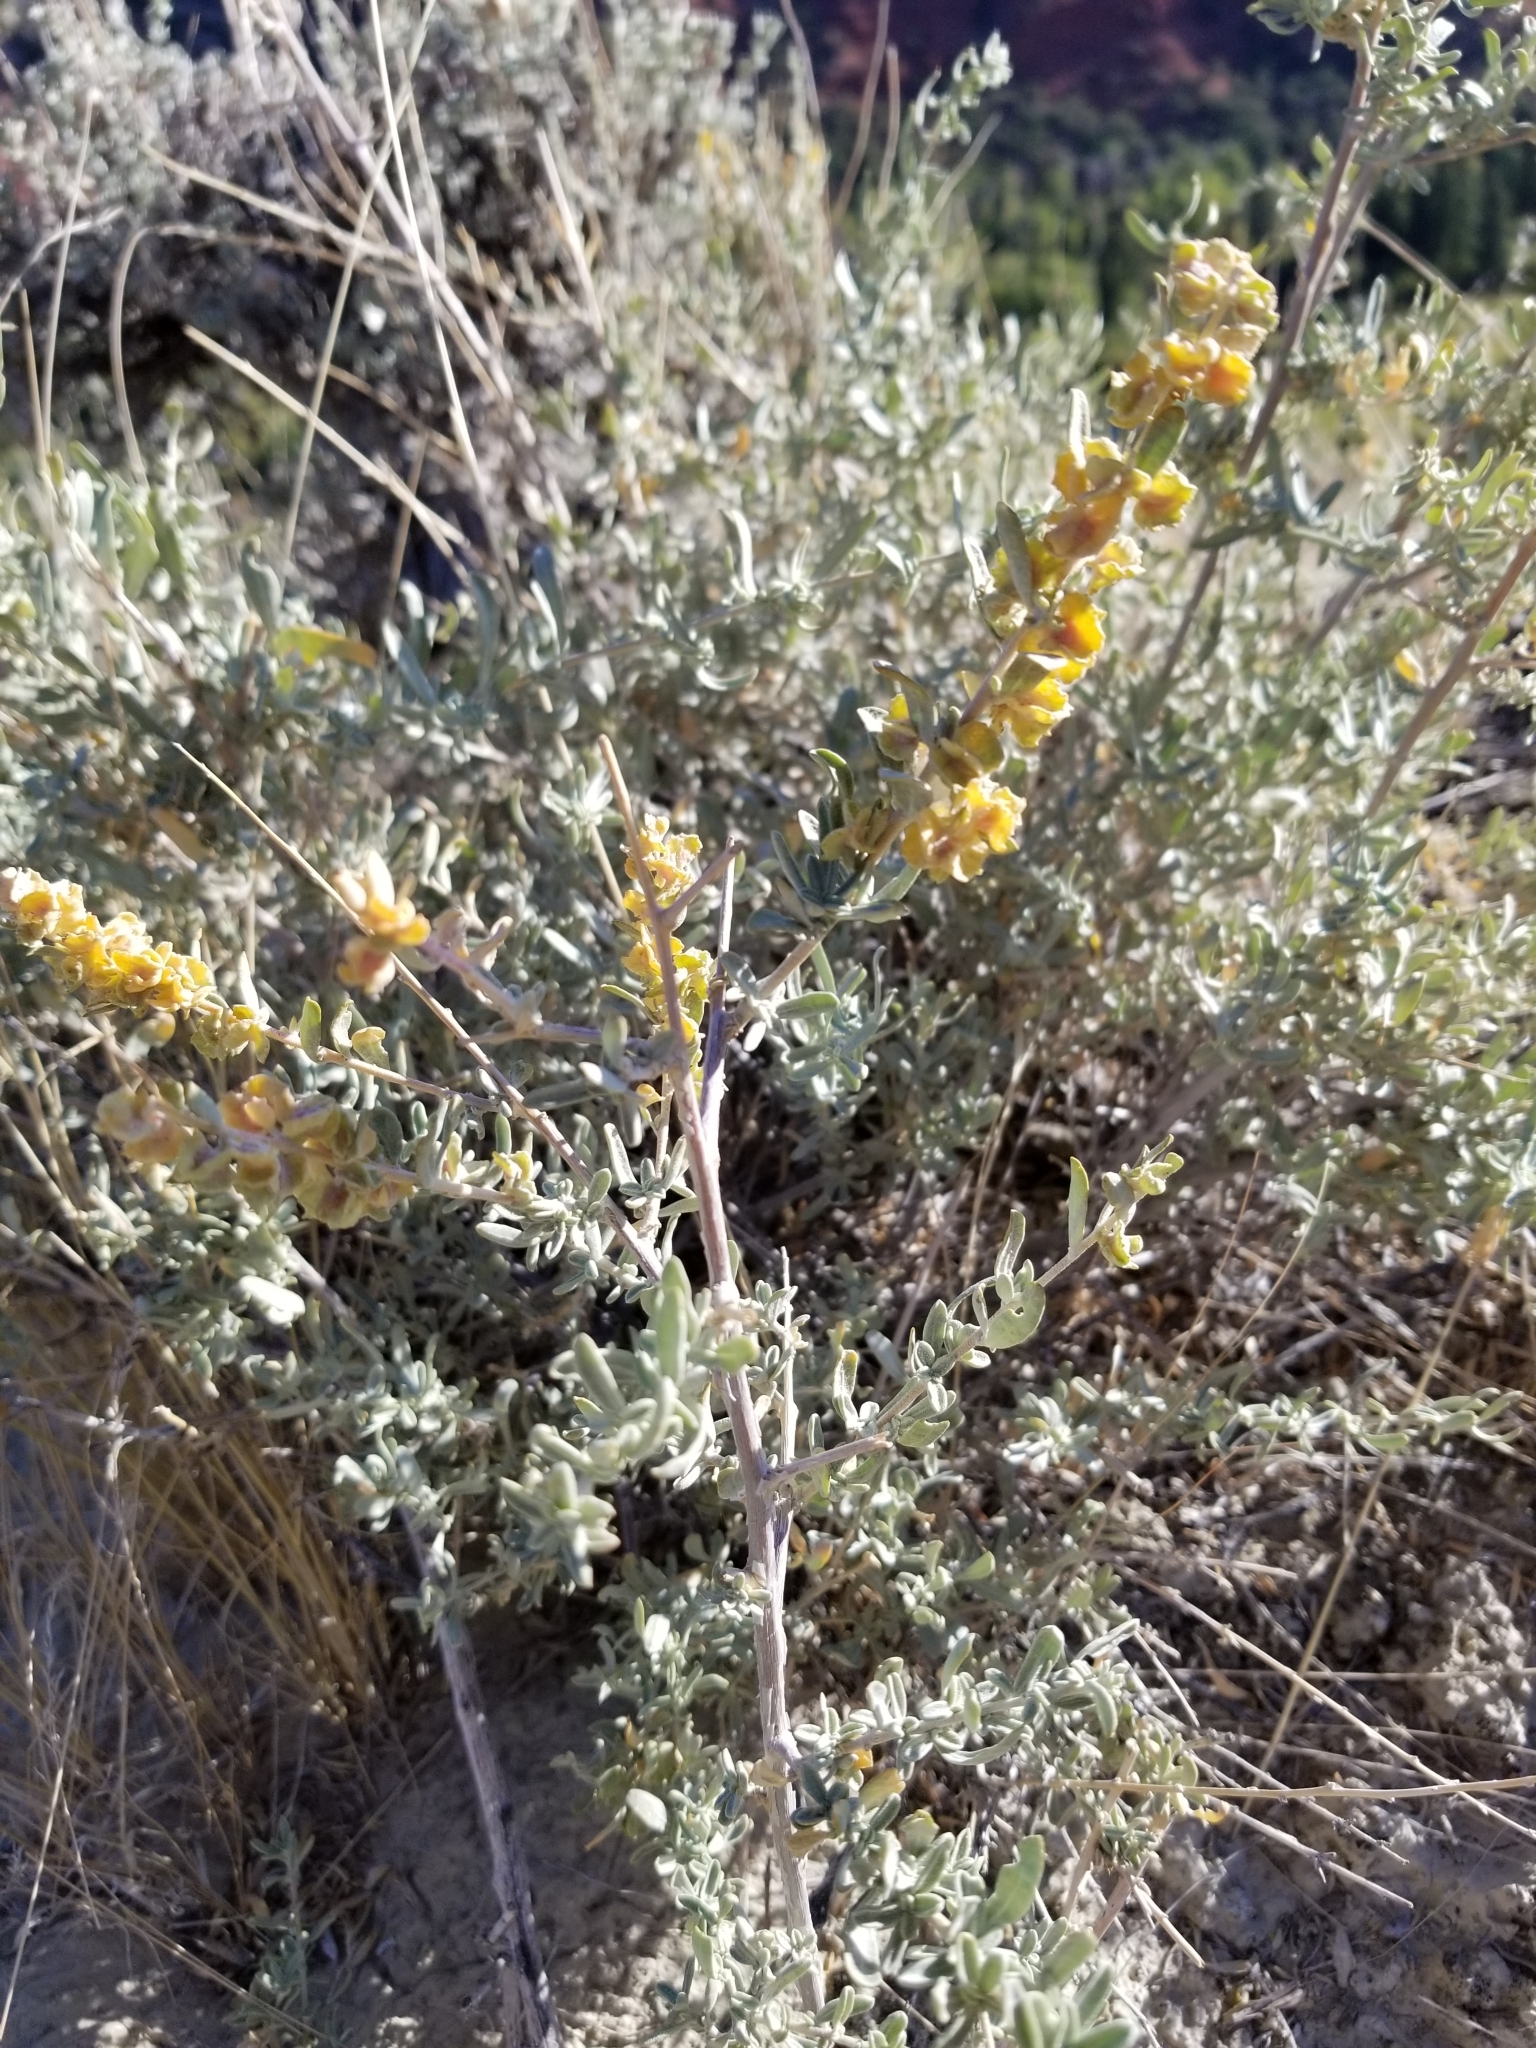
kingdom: Plantae
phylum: Tracheophyta
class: Magnoliopsida
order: Caryophyllales
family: Amaranthaceae
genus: Atriplex
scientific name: Atriplex canescens
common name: Four-wing saltbush
